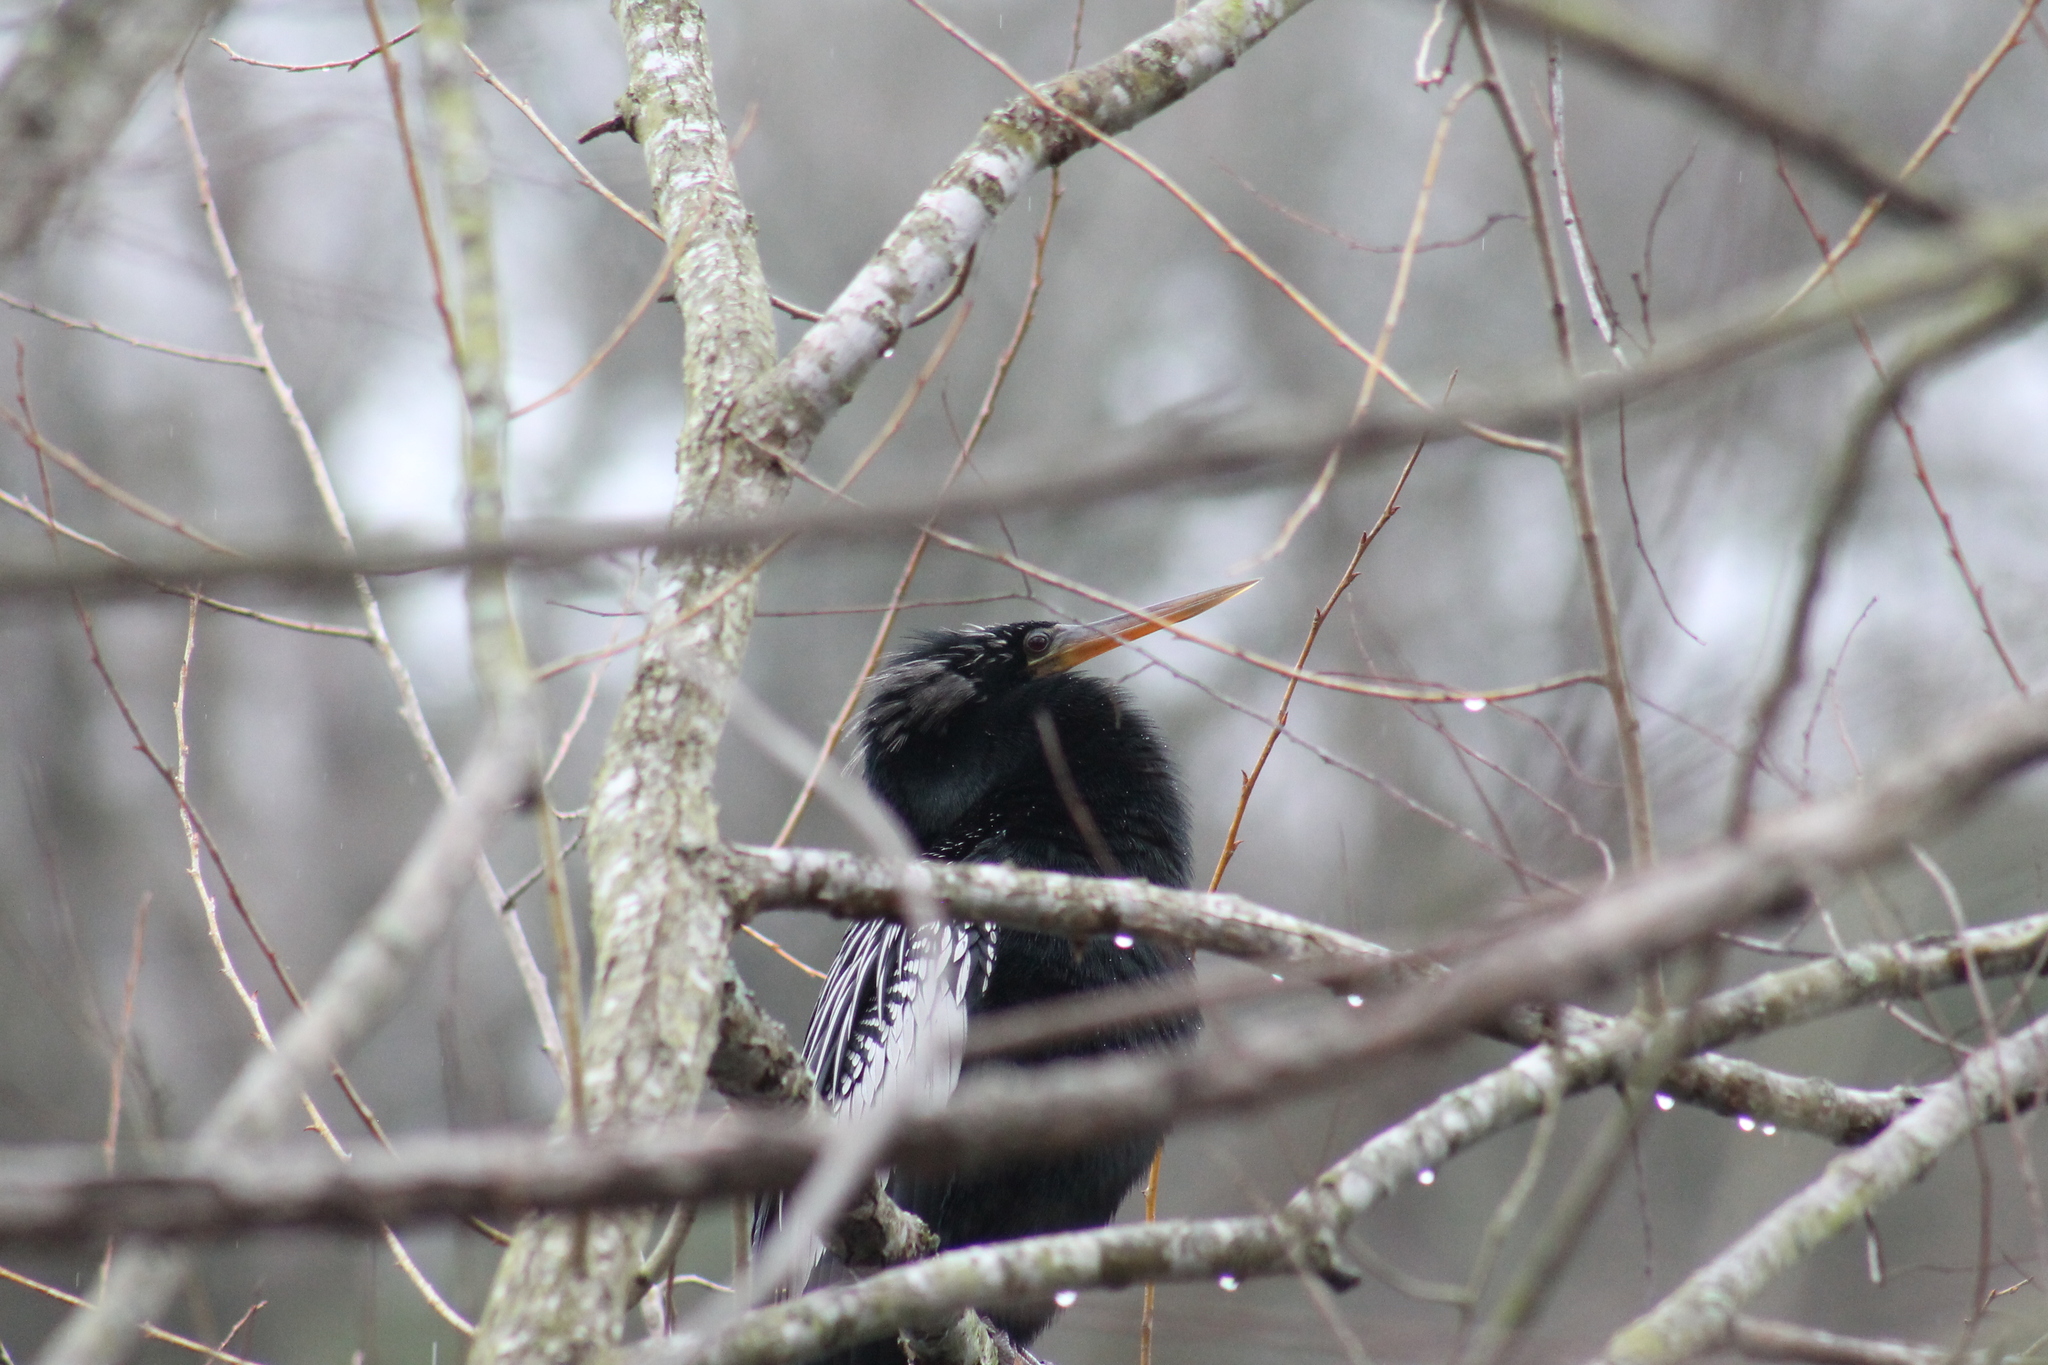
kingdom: Animalia
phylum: Chordata
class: Aves
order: Suliformes
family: Anhingidae
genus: Anhinga
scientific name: Anhinga anhinga
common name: Anhinga
